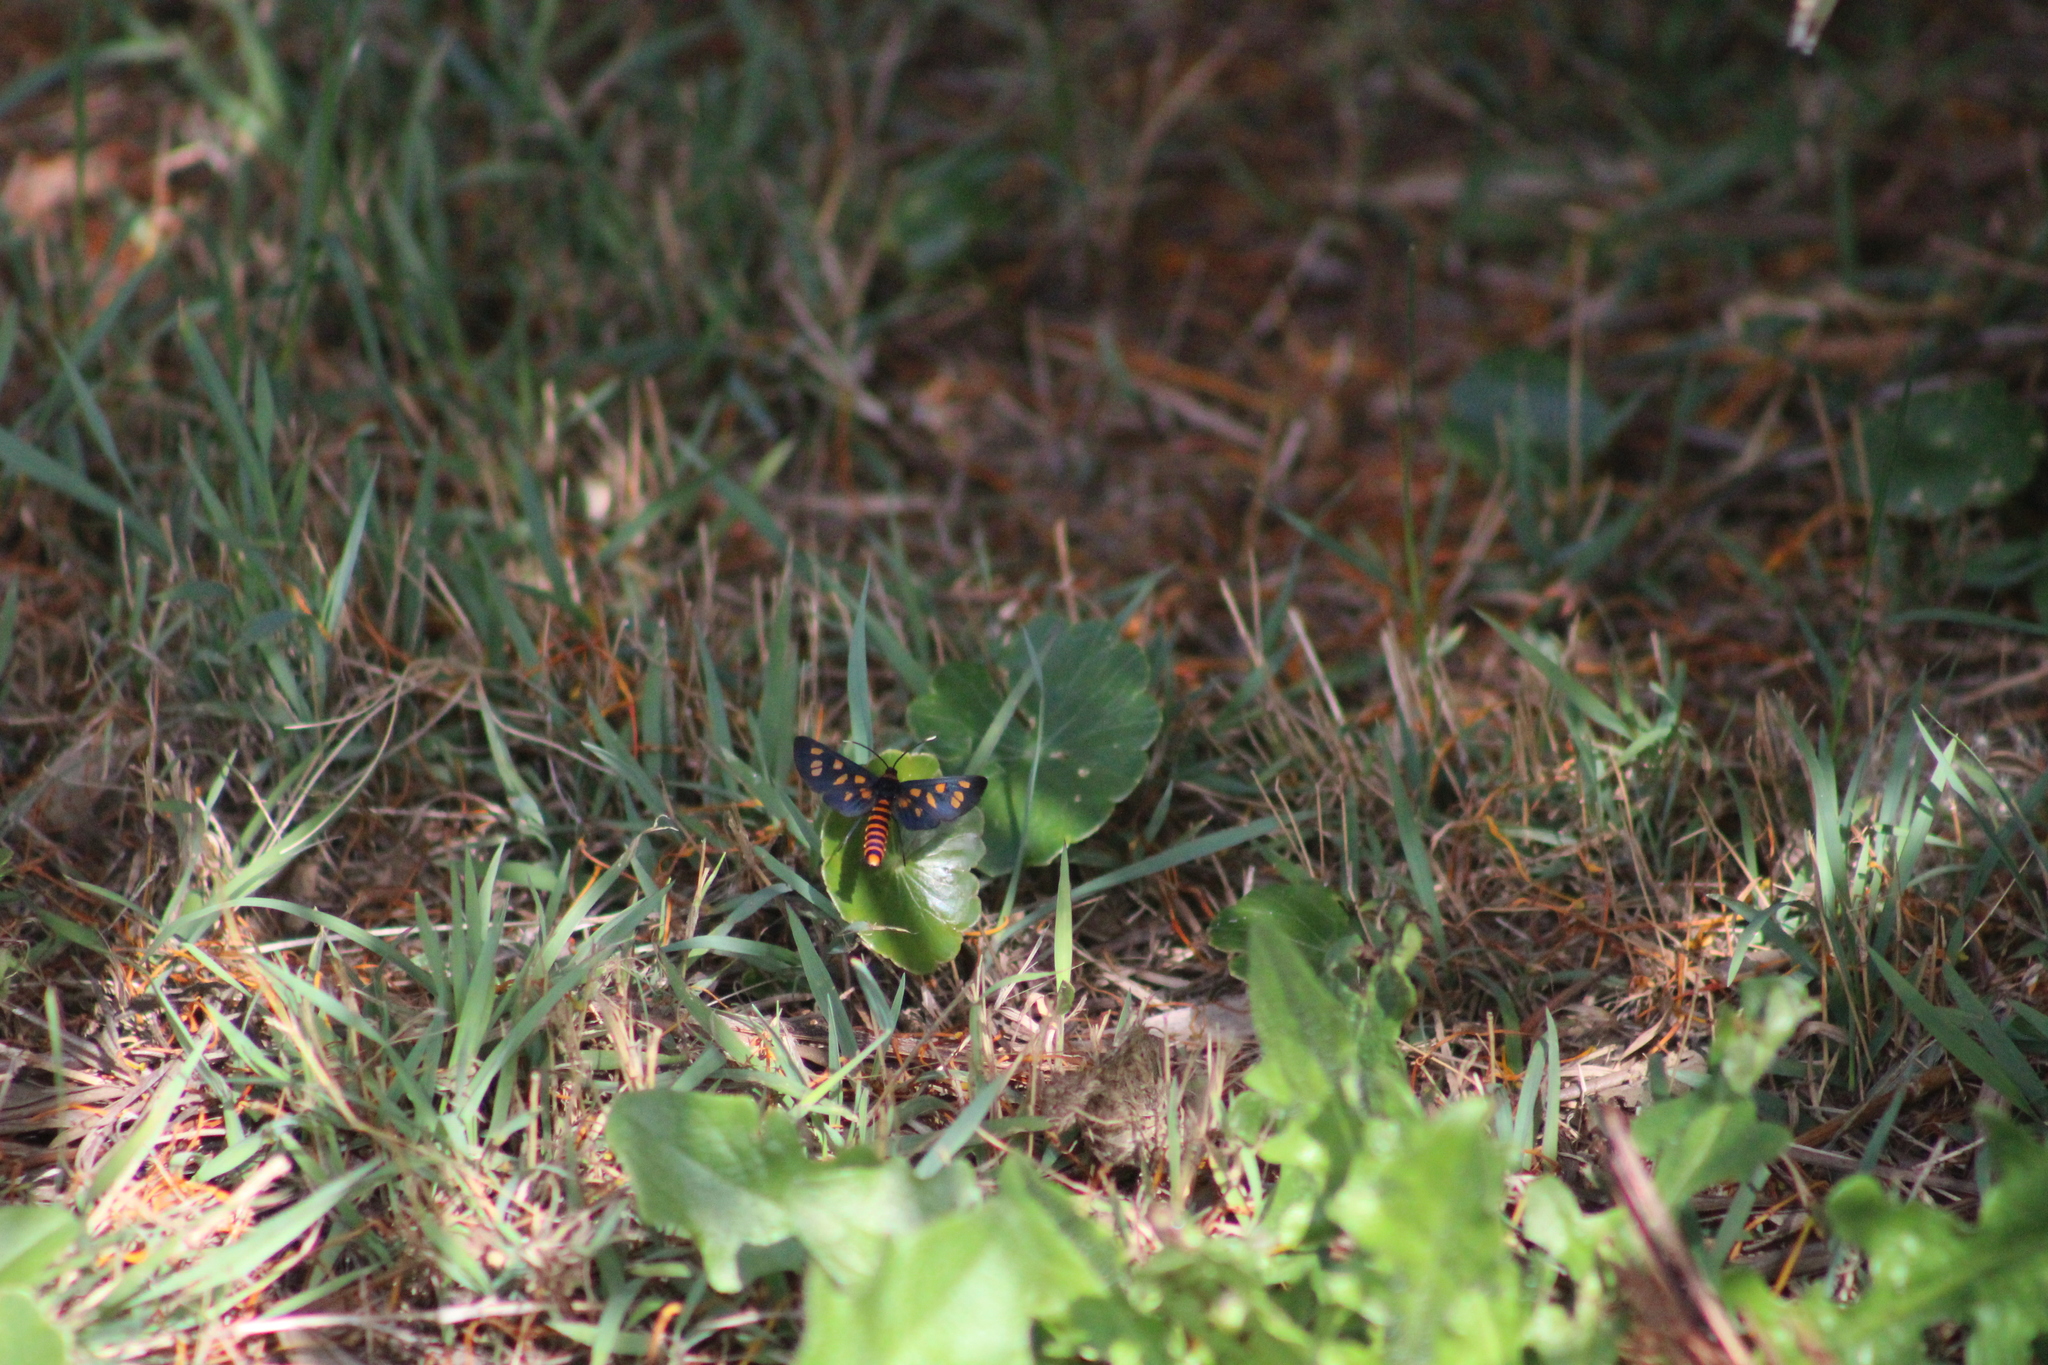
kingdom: Animalia
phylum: Arthropoda
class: Insecta
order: Lepidoptera
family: Erebidae
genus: Amata
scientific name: Amata nigriceps
